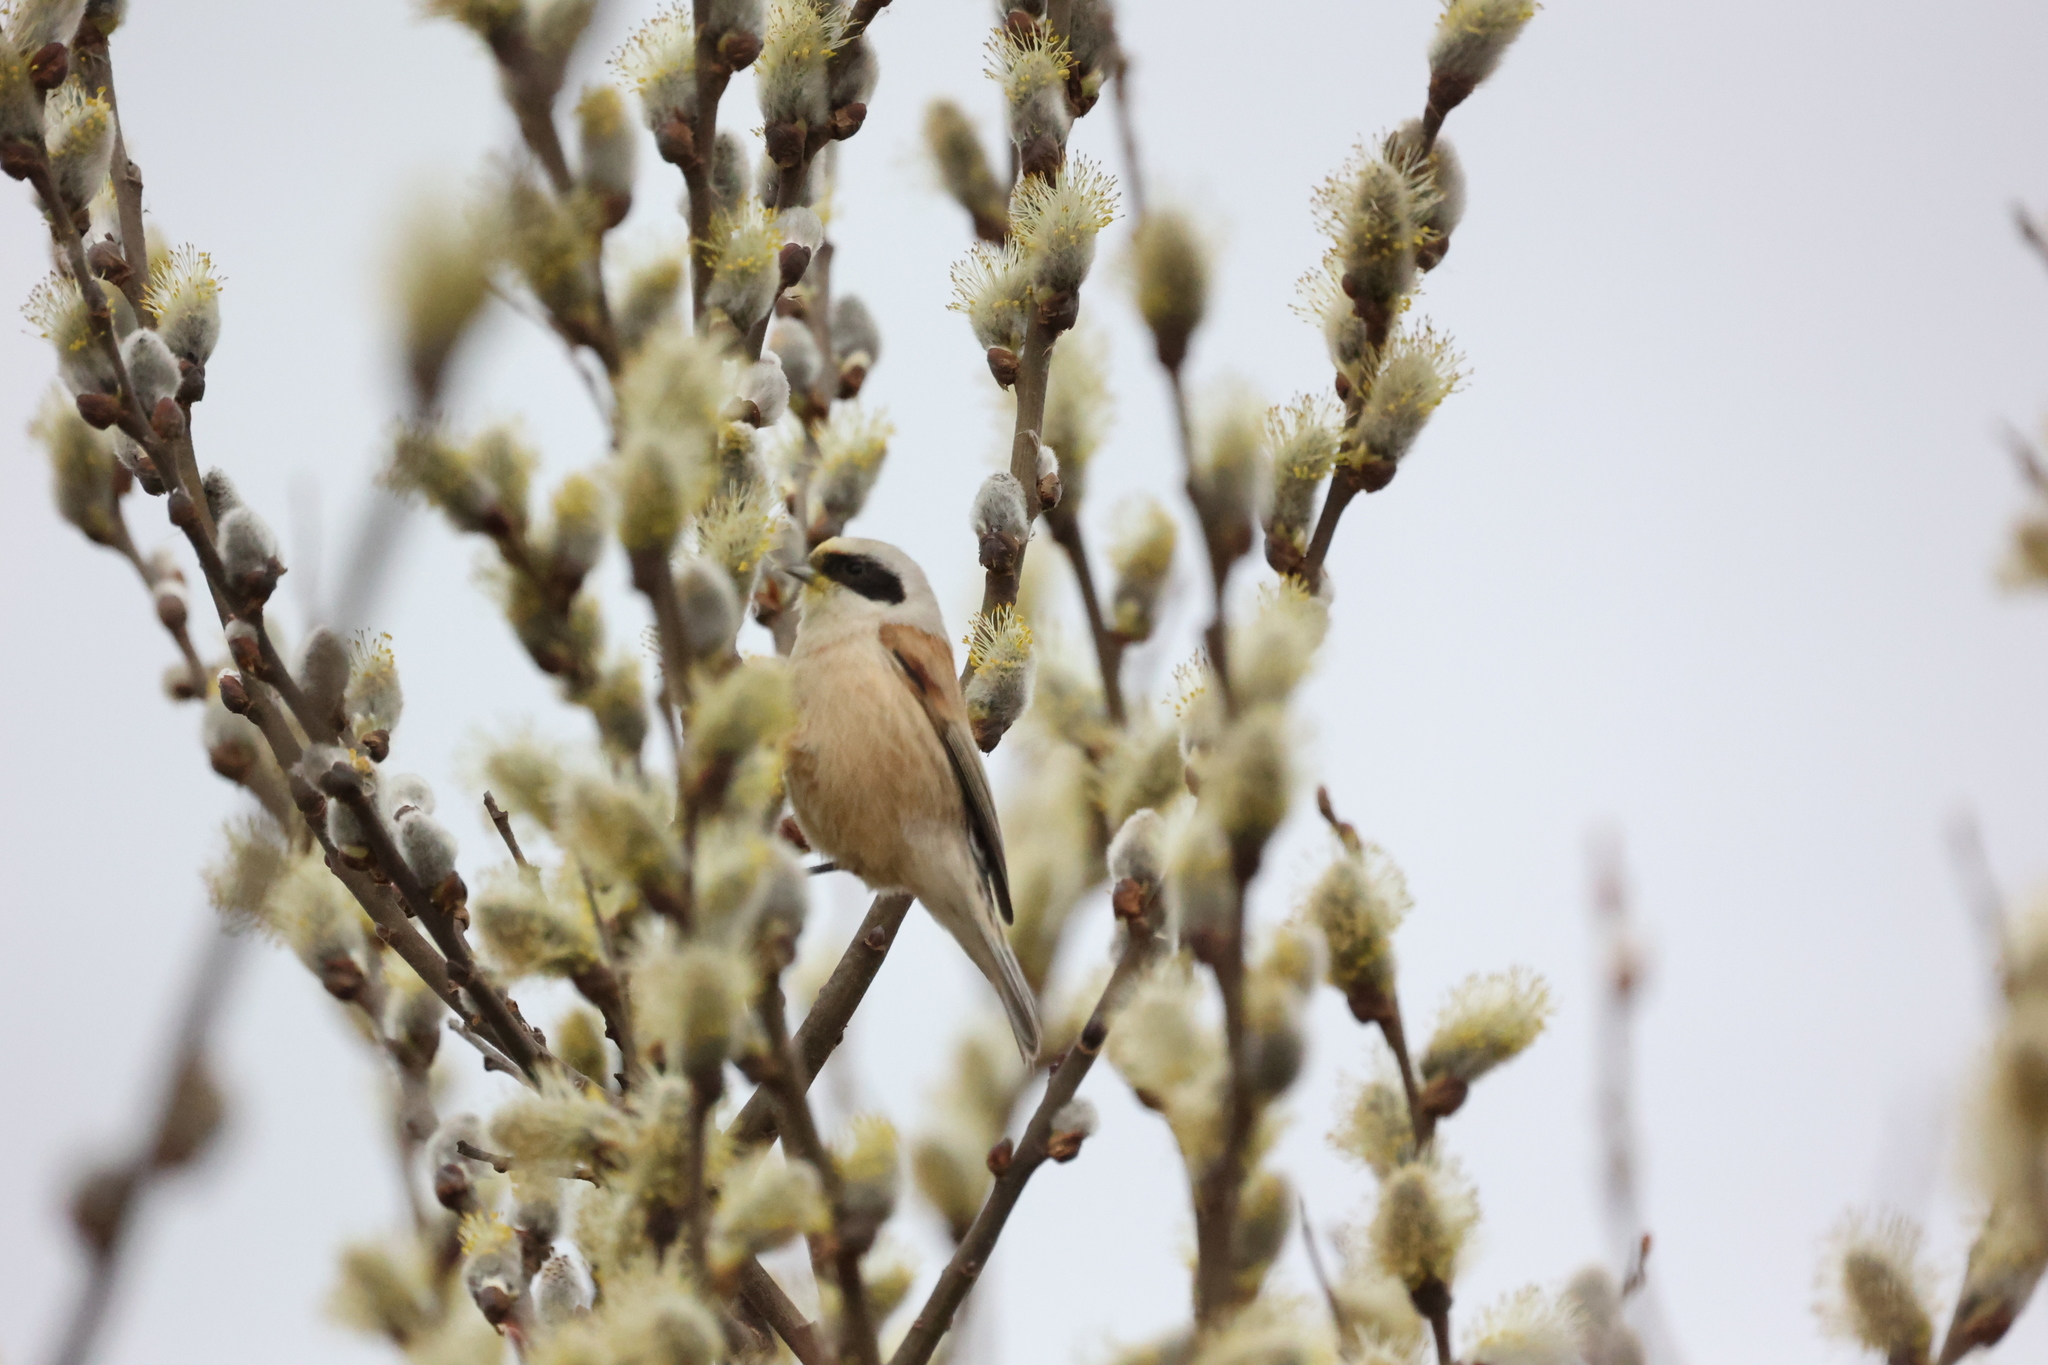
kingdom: Animalia
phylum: Chordata
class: Aves
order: Passeriformes
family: Remizidae
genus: Remiz
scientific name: Remiz pendulinus
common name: Eurasian penduline tit
